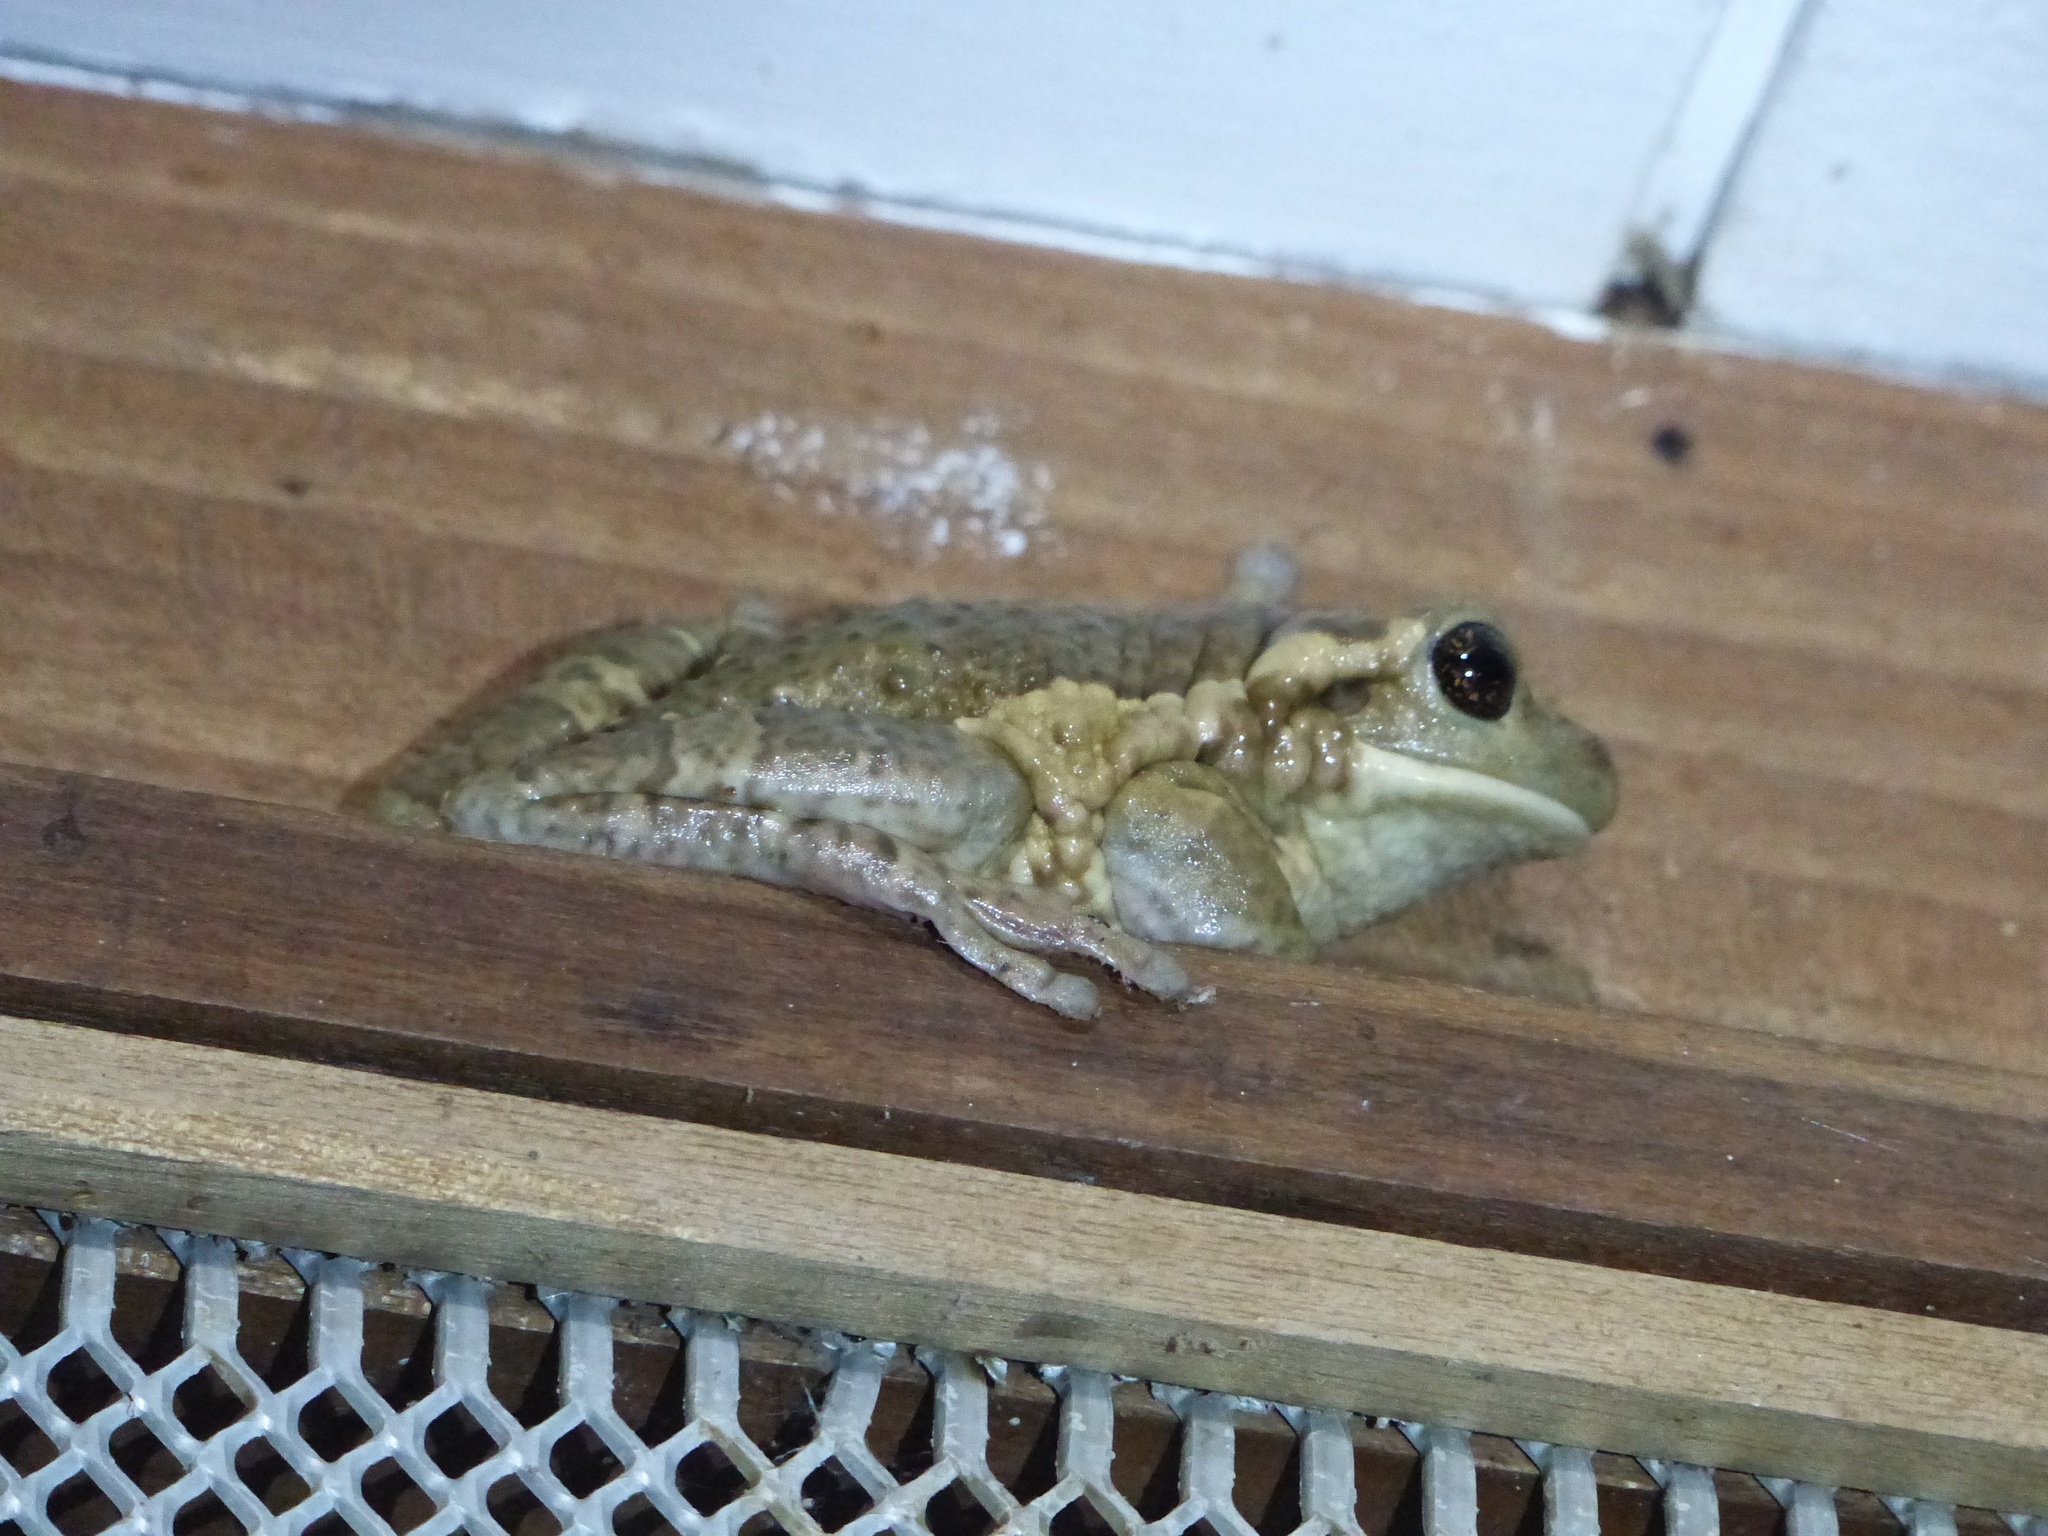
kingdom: Animalia
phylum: Chordata
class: Amphibia
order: Anura
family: Hylidae
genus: Trachycephalus
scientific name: Trachycephalus vermiculatus
